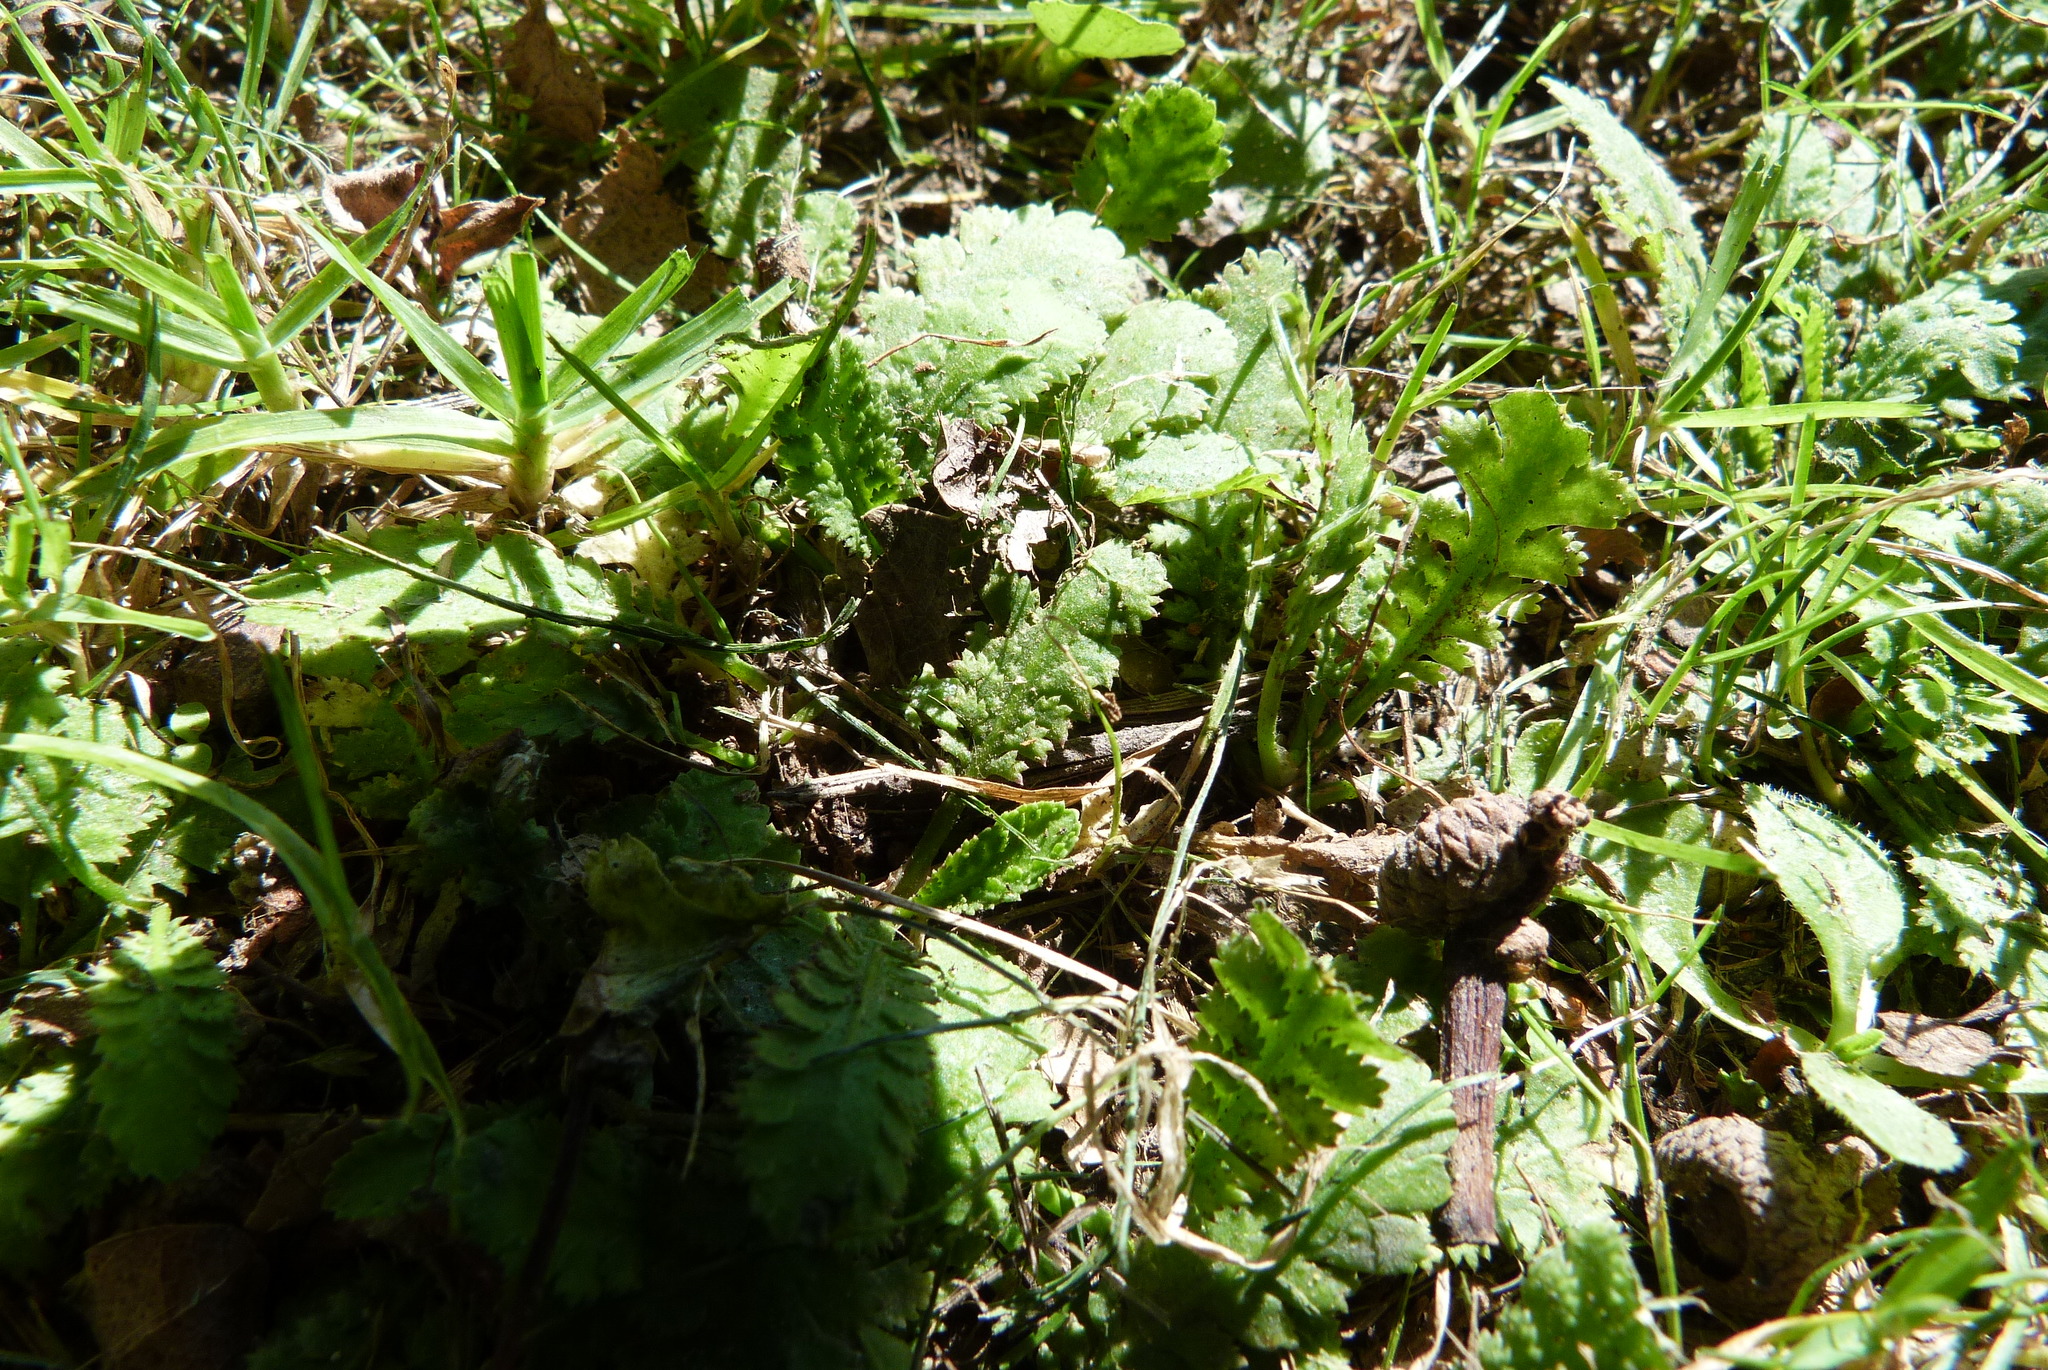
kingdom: Plantae
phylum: Tracheophyta
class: Magnoliopsida
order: Asterales
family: Asteraceae
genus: Leptinella
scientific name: Leptinella dioica
